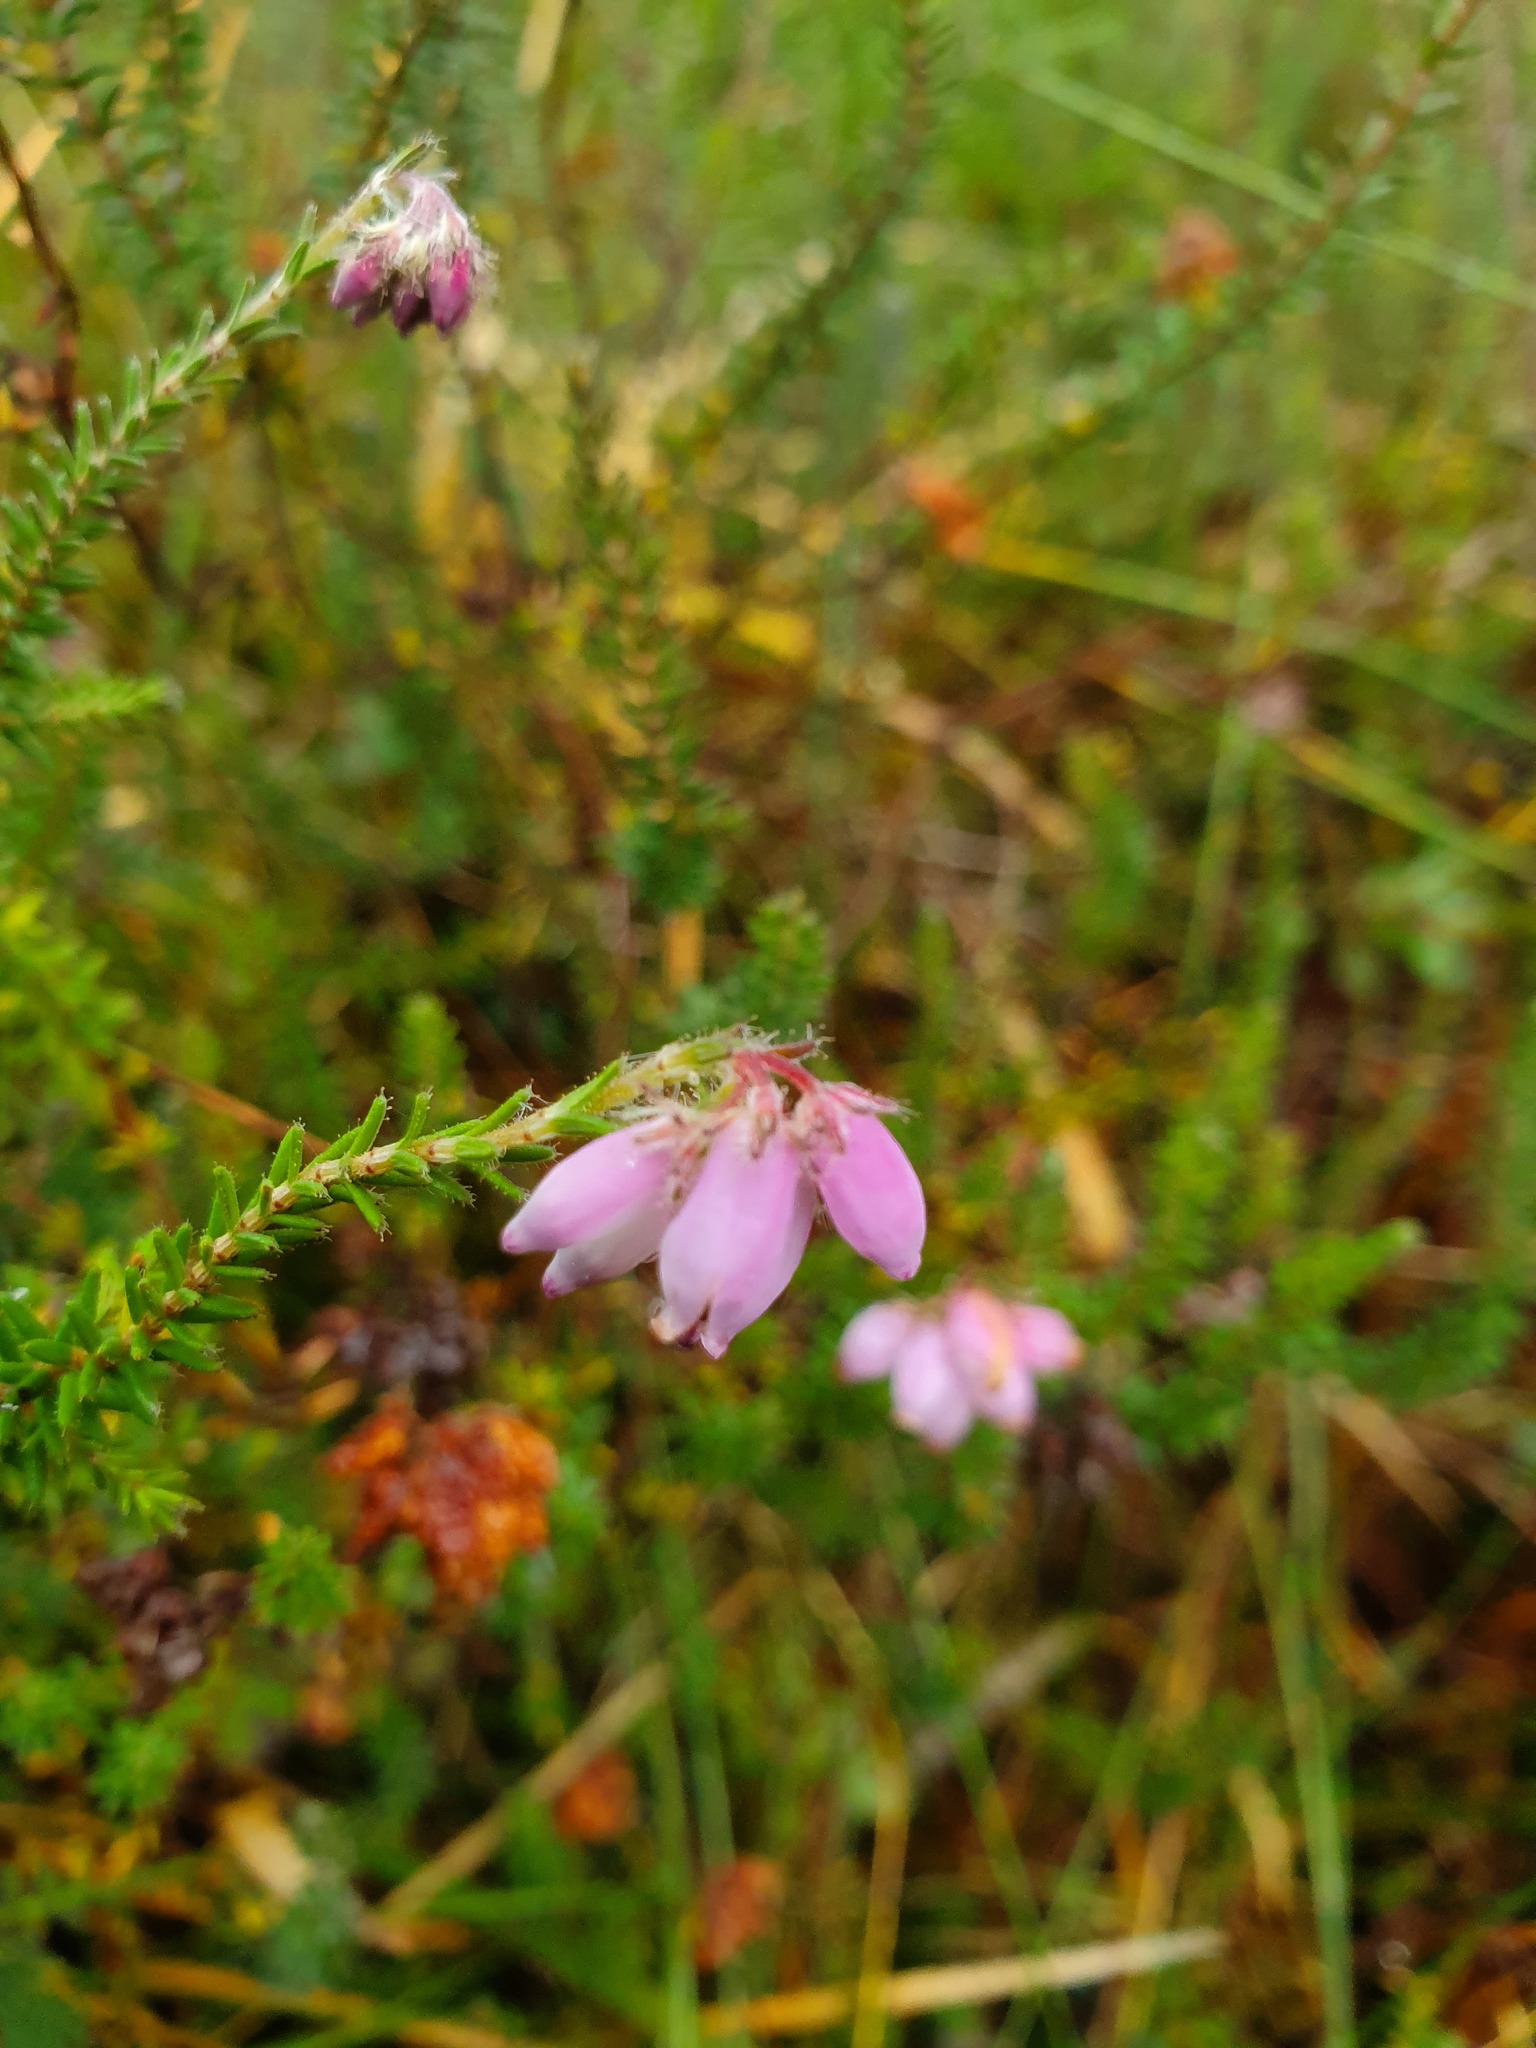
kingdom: Plantae
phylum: Tracheophyta
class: Magnoliopsida
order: Ericales
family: Ericaceae
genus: Erica
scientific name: Erica tetralix
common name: Cross-leaved heath
